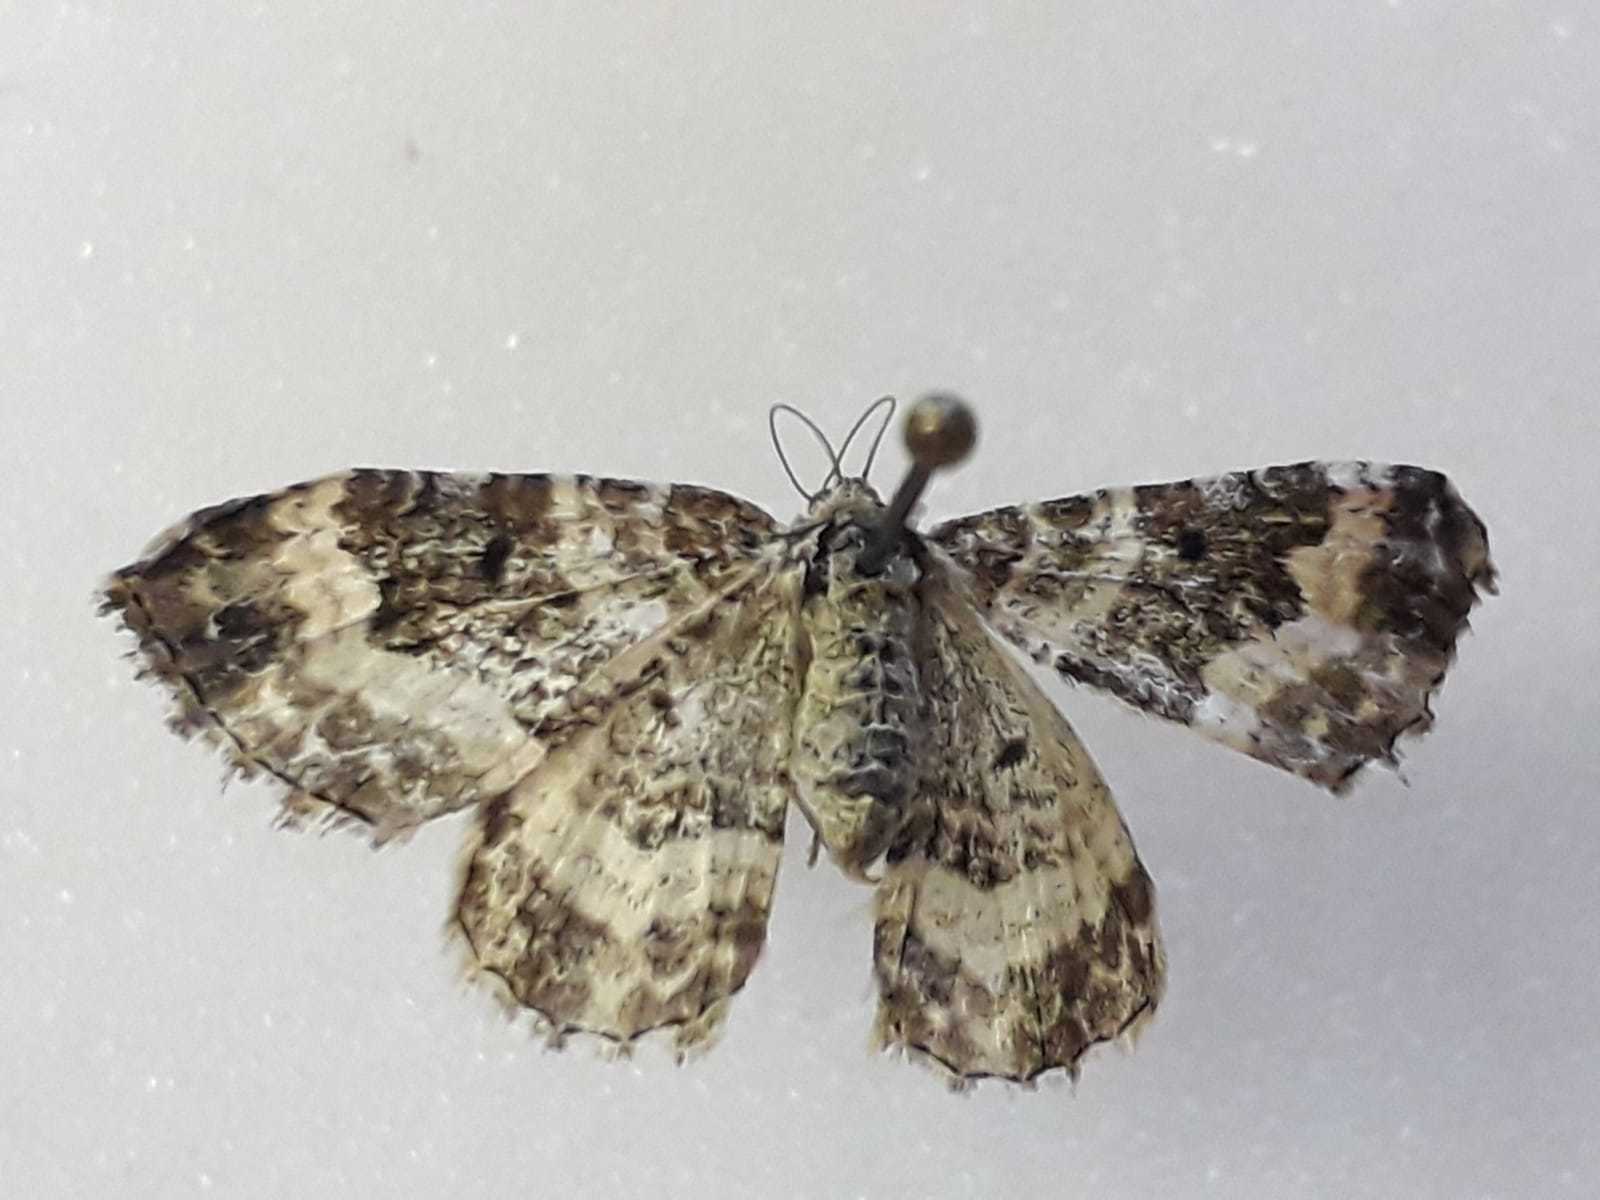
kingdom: Animalia
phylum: Arthropoda
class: Insecta
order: Lepidoptera
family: Geometridae
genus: Epirrhoe
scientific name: Epirrhoe alternata
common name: Common carpet
